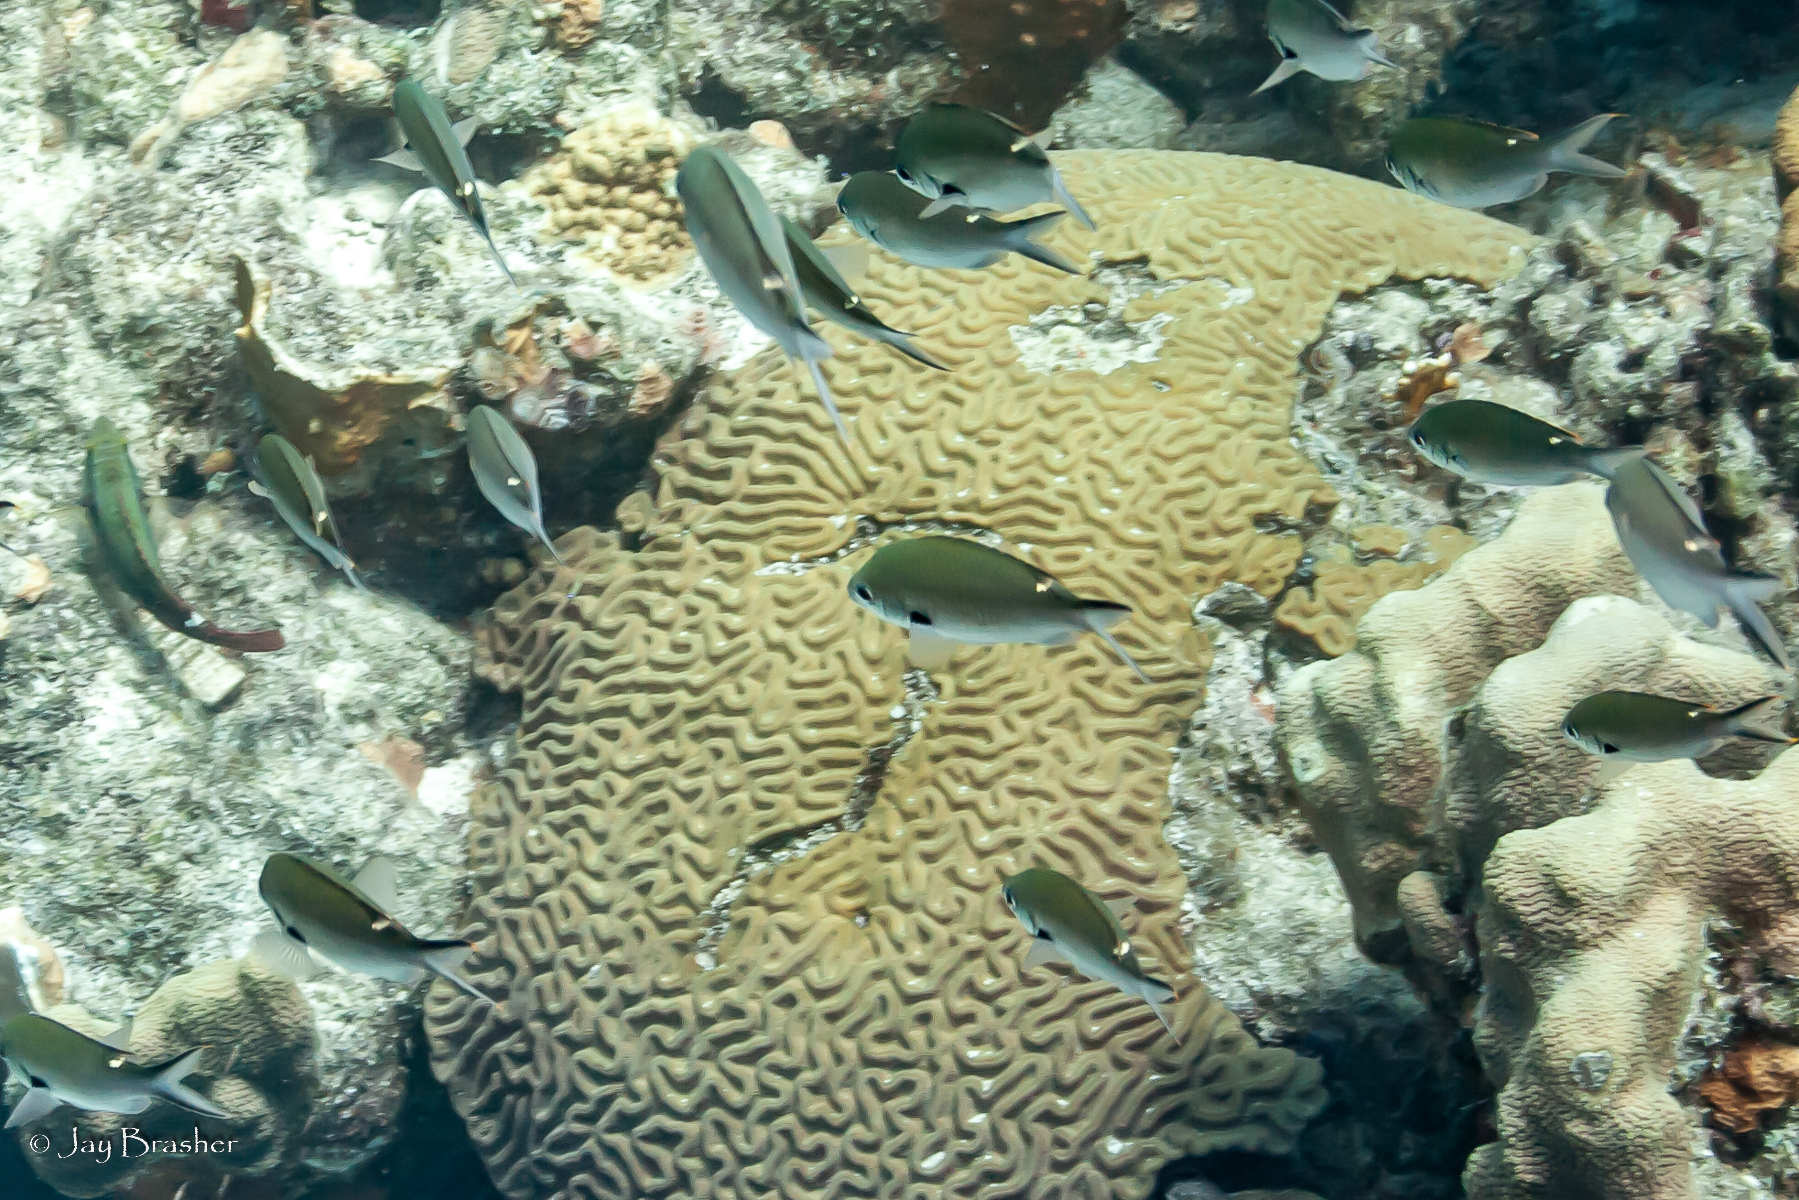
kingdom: Animalia
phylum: Chordata
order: Perciformes
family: Pomacentridae
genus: Chromis
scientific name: Chromis multilineata
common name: Brown chromis
